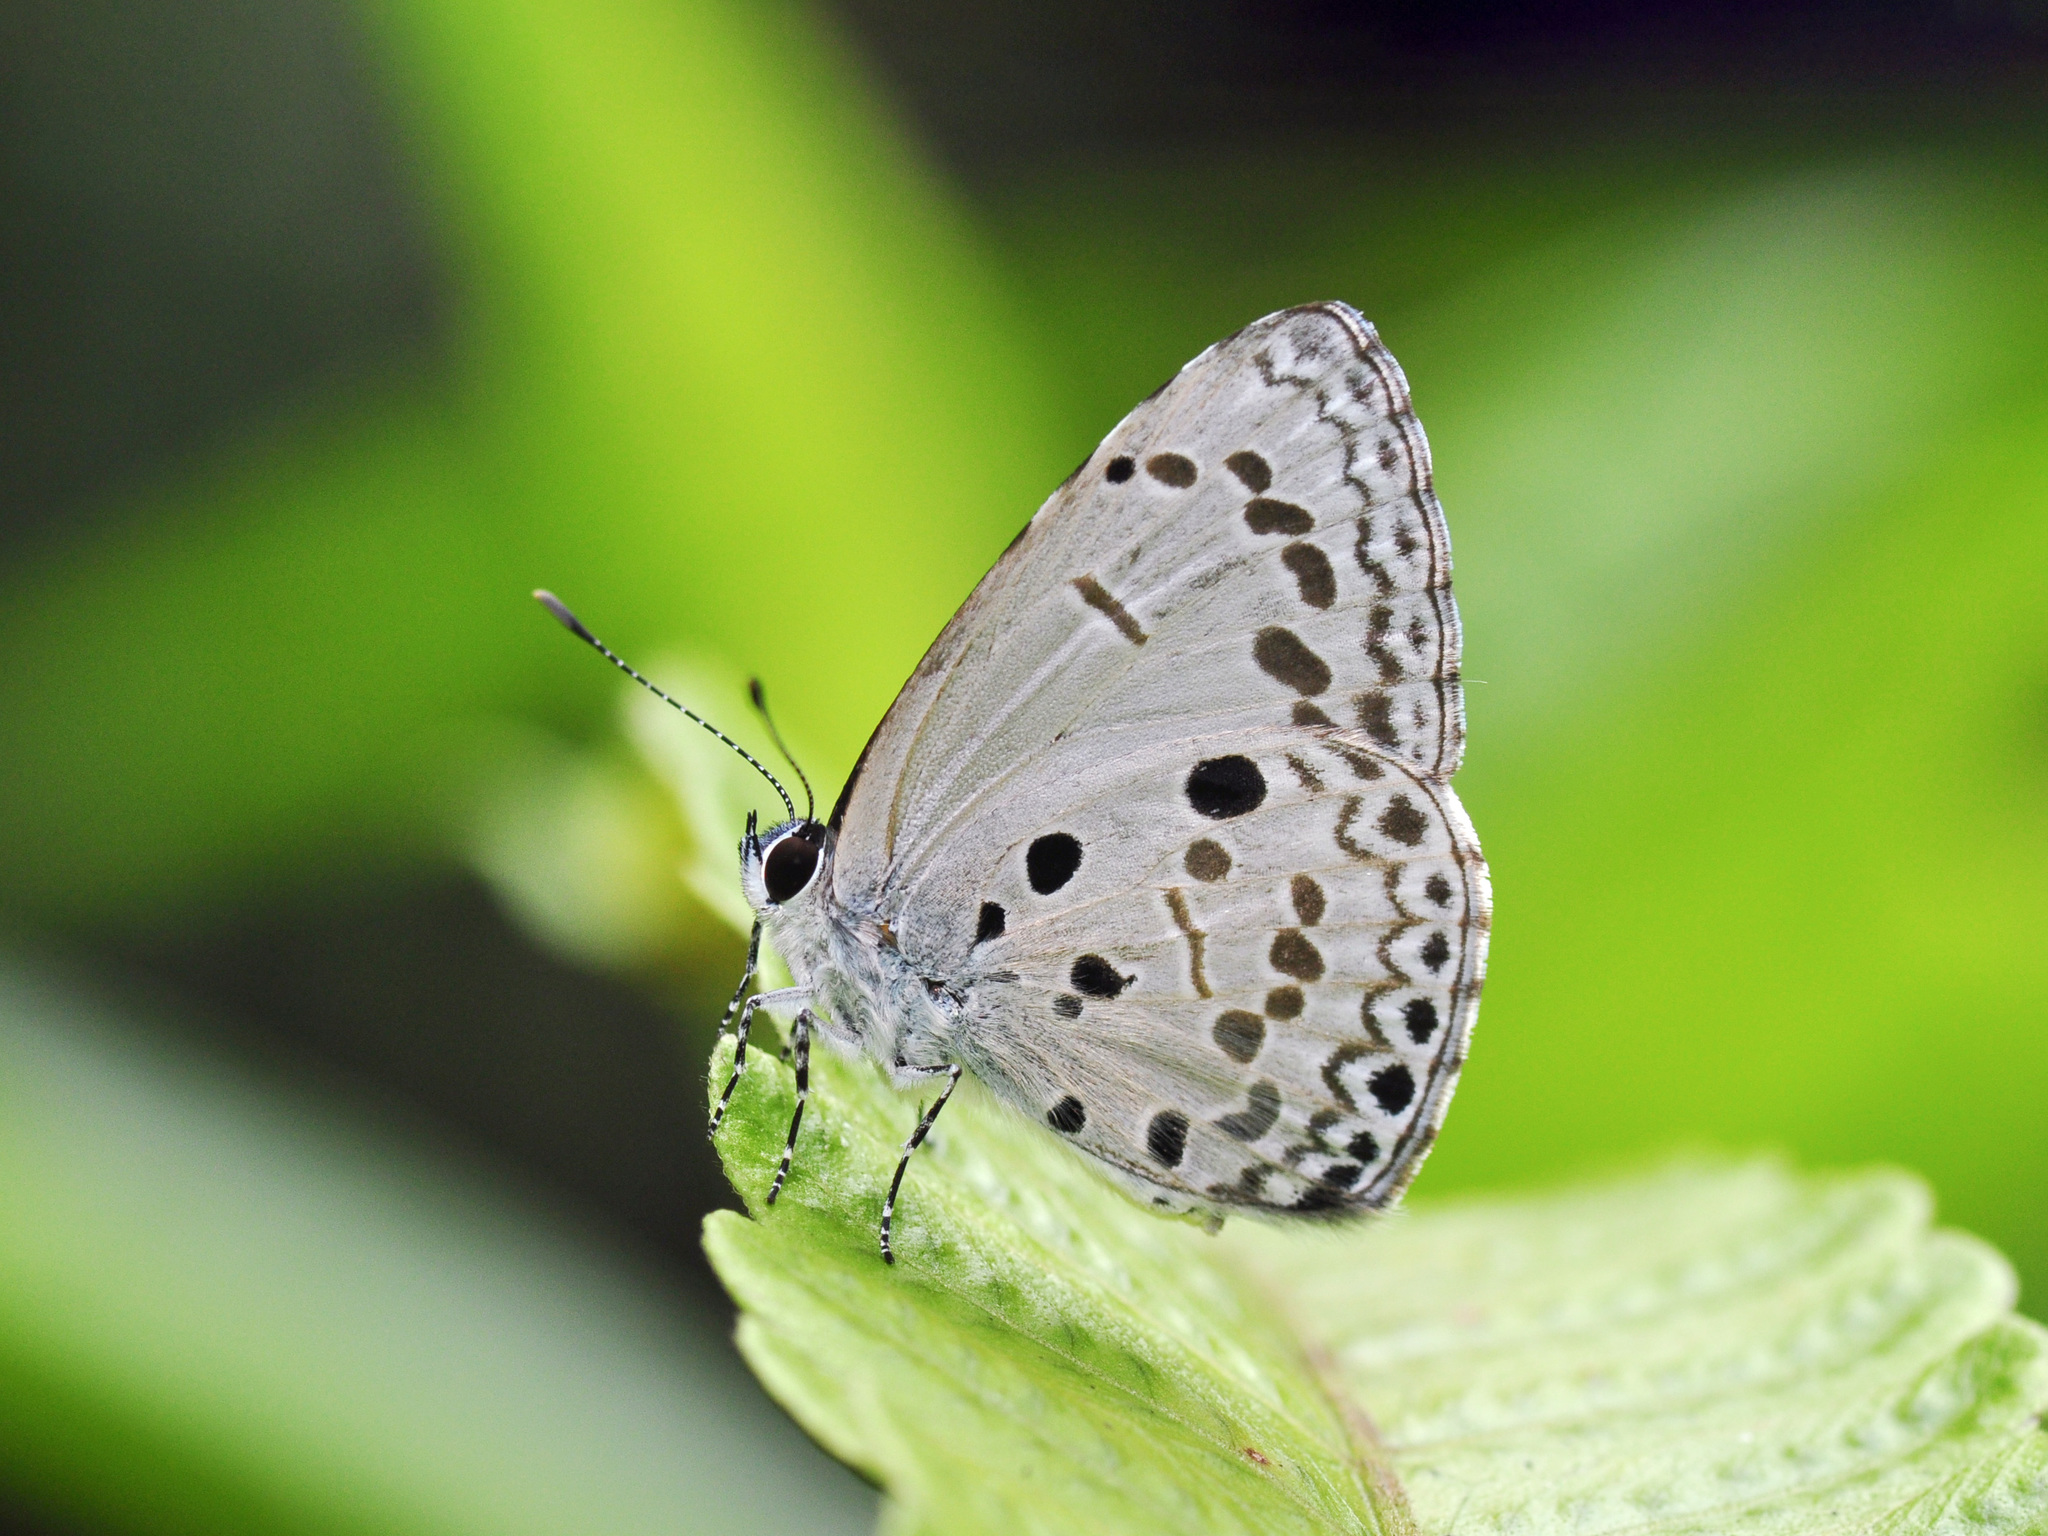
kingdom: Animalia
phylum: Arthropoda
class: Insecta
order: Lepidoptera
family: Lycaenidae
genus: Acytolepis
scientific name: Acytolepis puspa
